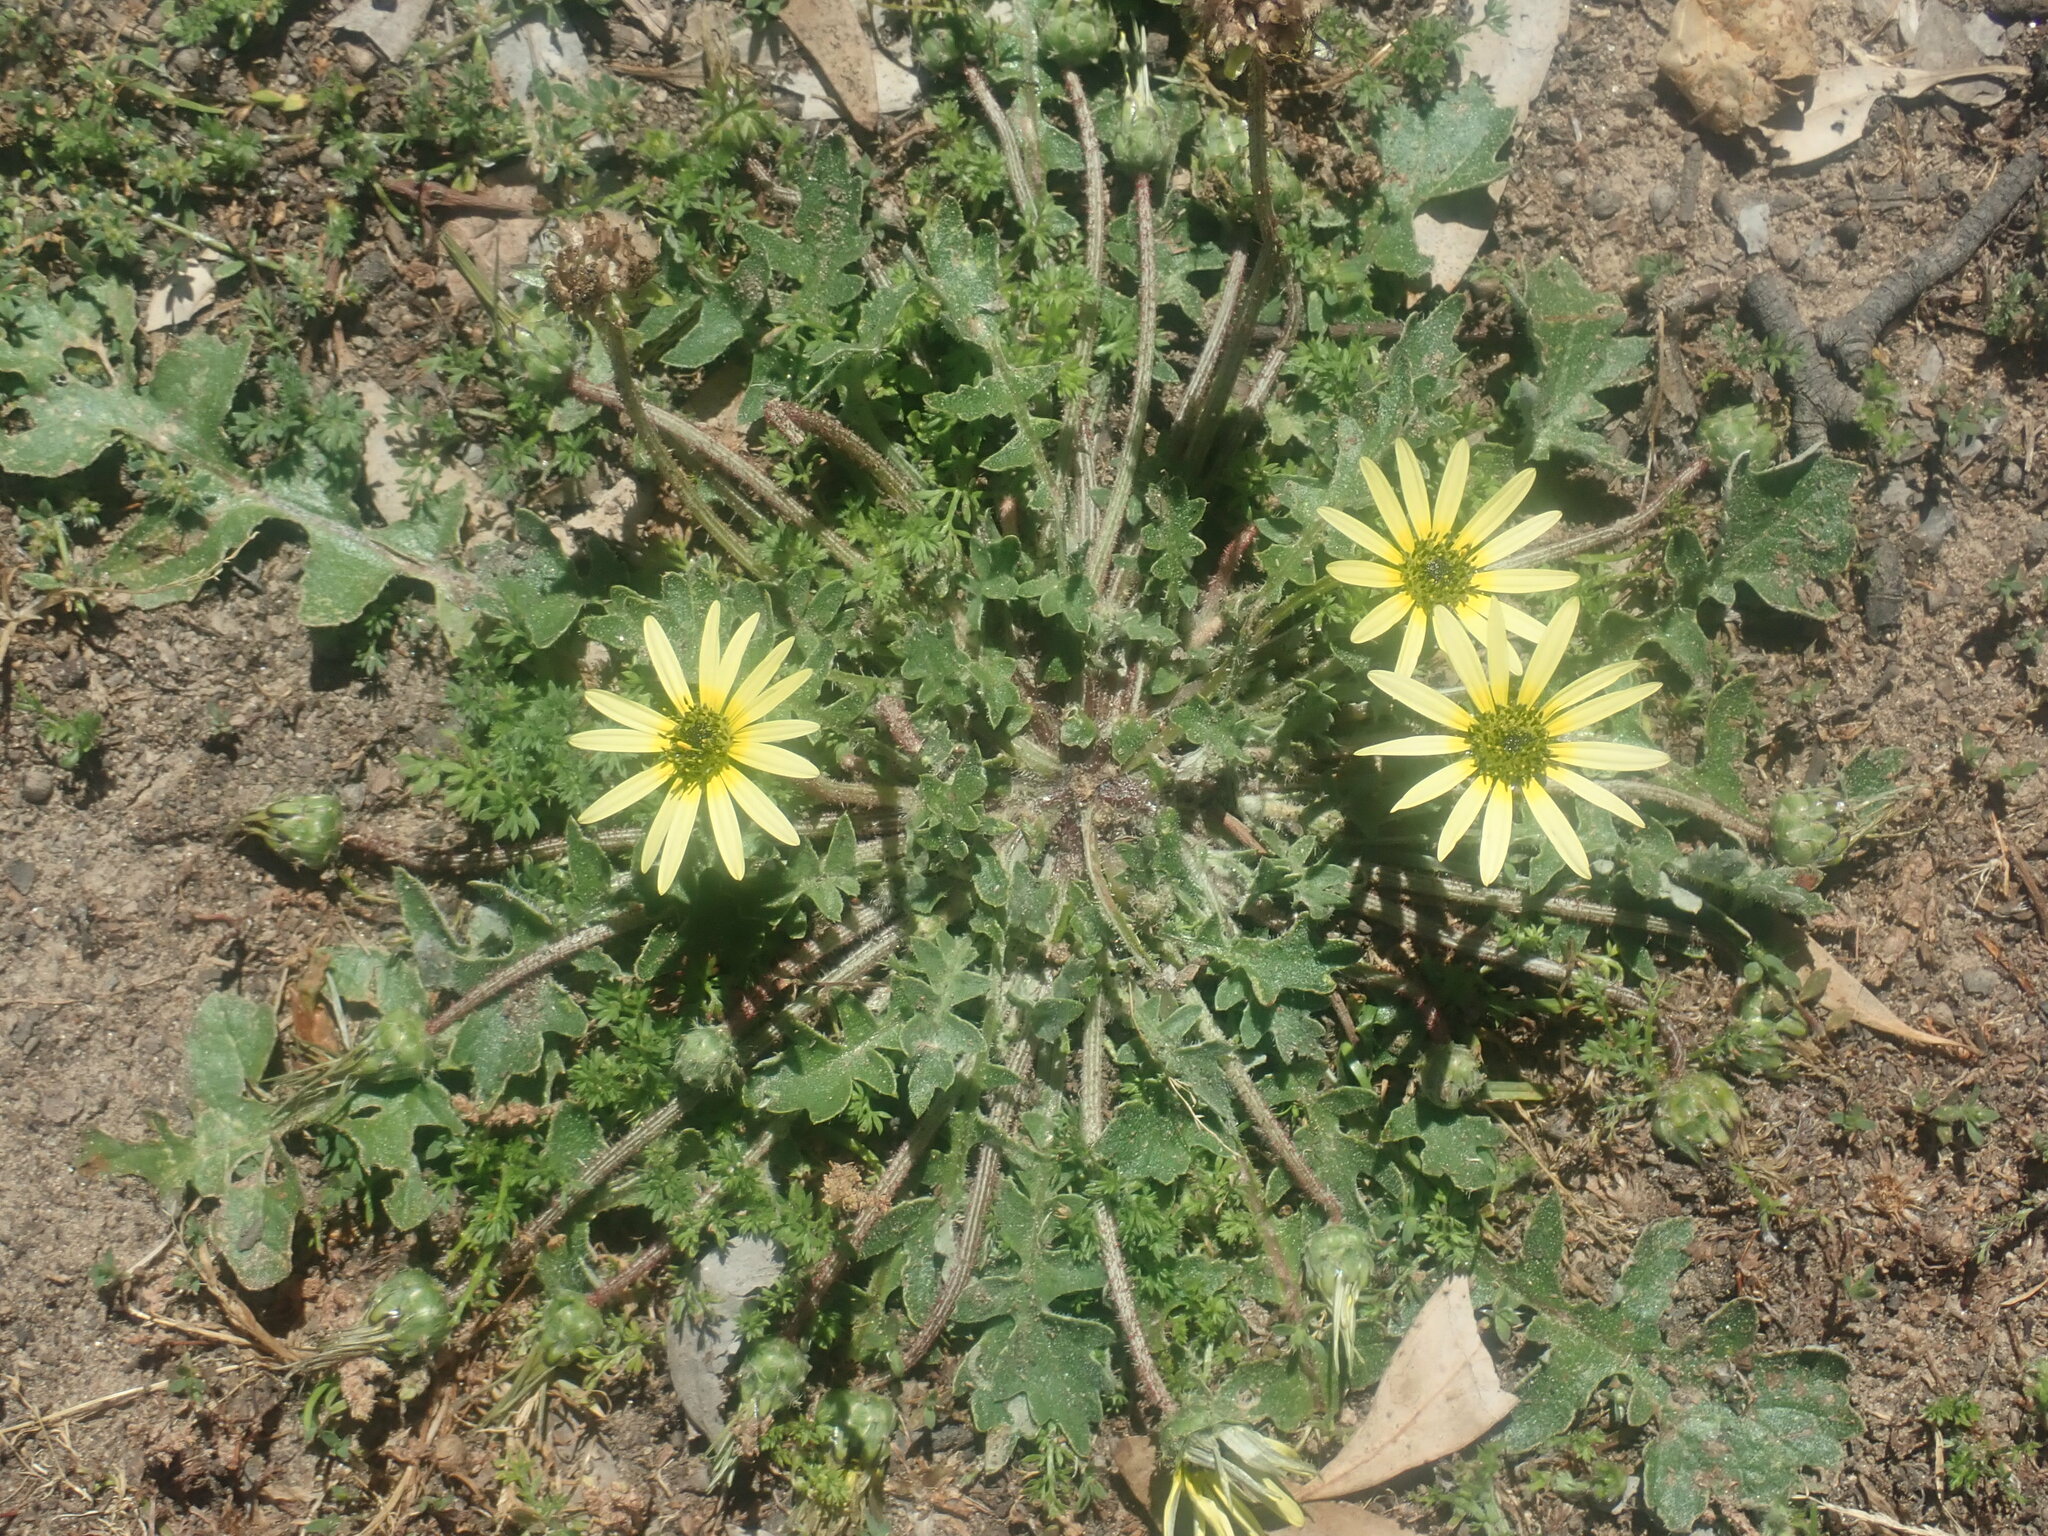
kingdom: Plantae
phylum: Tracheophyta
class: Magnoliopsida
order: Asterales
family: Asteraceae
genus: Arctotheca
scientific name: Arctotheca calendula
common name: Capeweed
